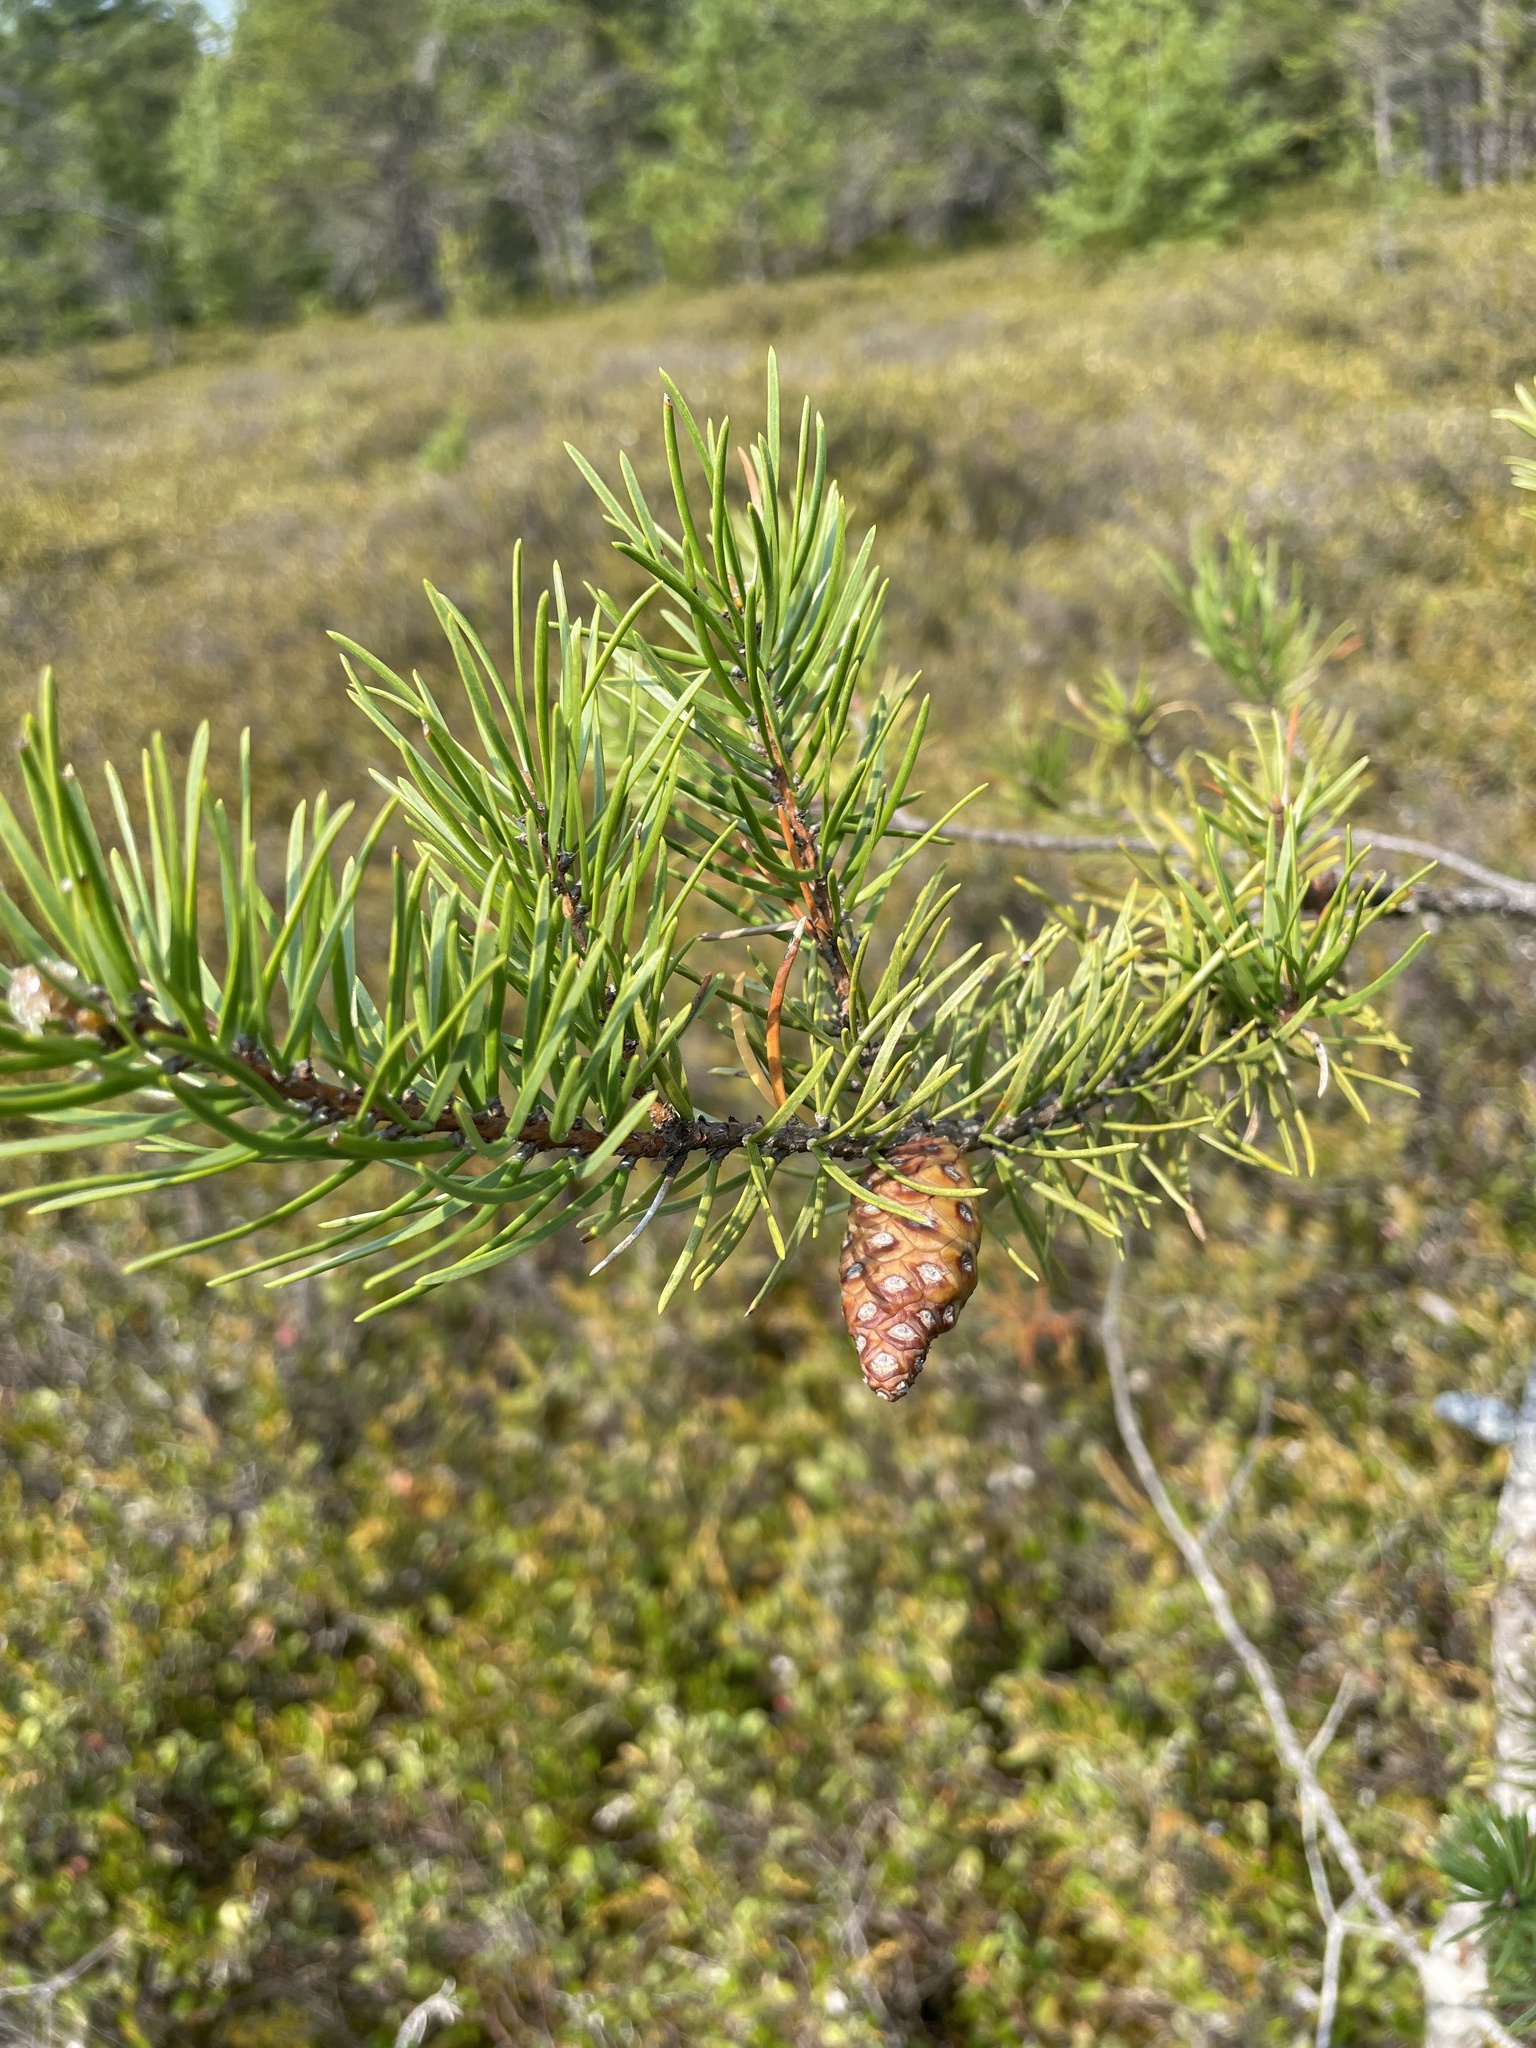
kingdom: Plantae
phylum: Tracheophyta
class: Pinopsida
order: Pinales
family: Pinaceae
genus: Pinus
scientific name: Pinus banksiana
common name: Jack pine
